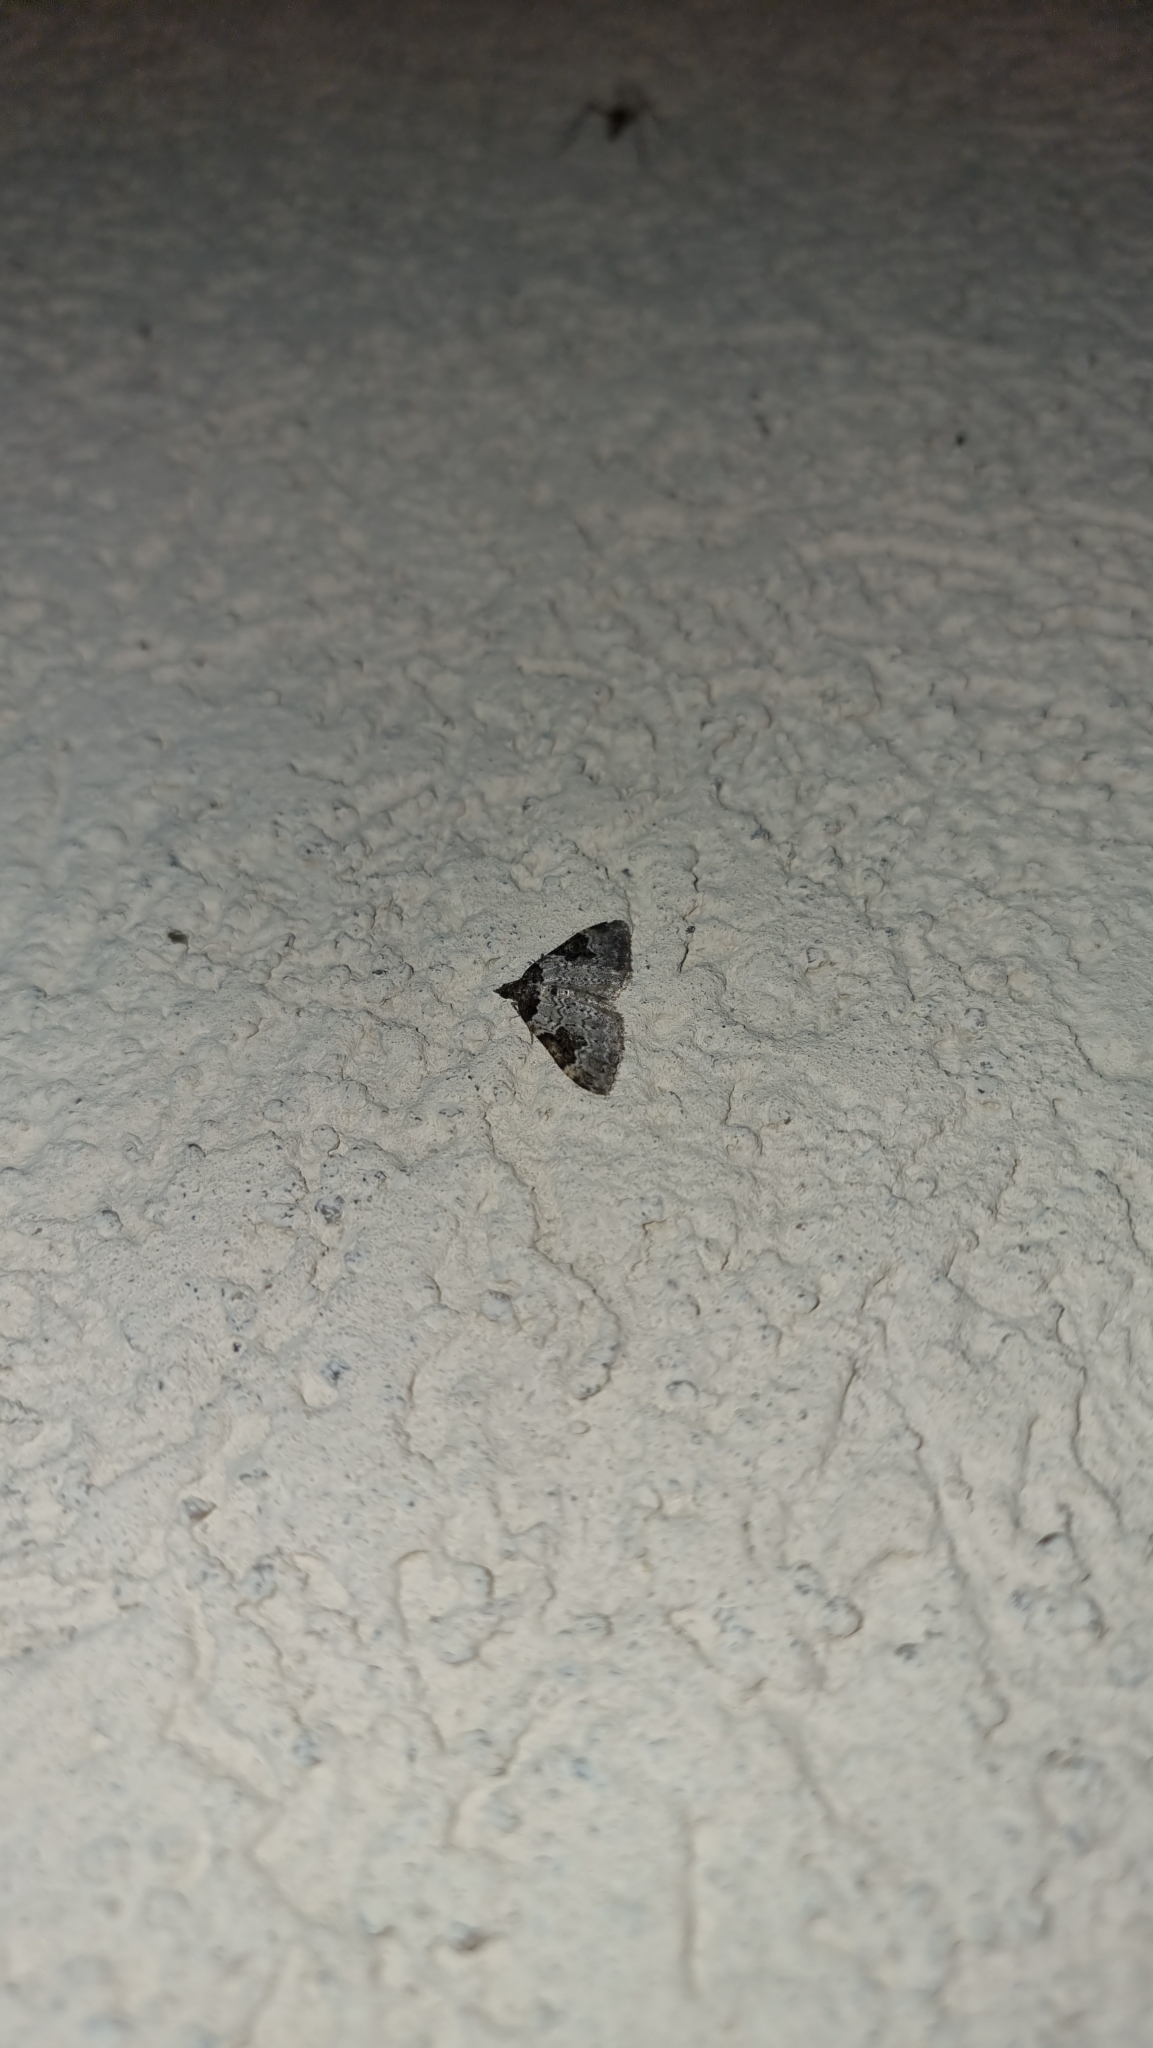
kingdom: Animalia
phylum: Arthropoda
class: Insecta
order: Lepidoptera
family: Geometridae
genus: Xanthorhoe
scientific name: Xanthorhoe fluctuata
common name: Garden carpet
